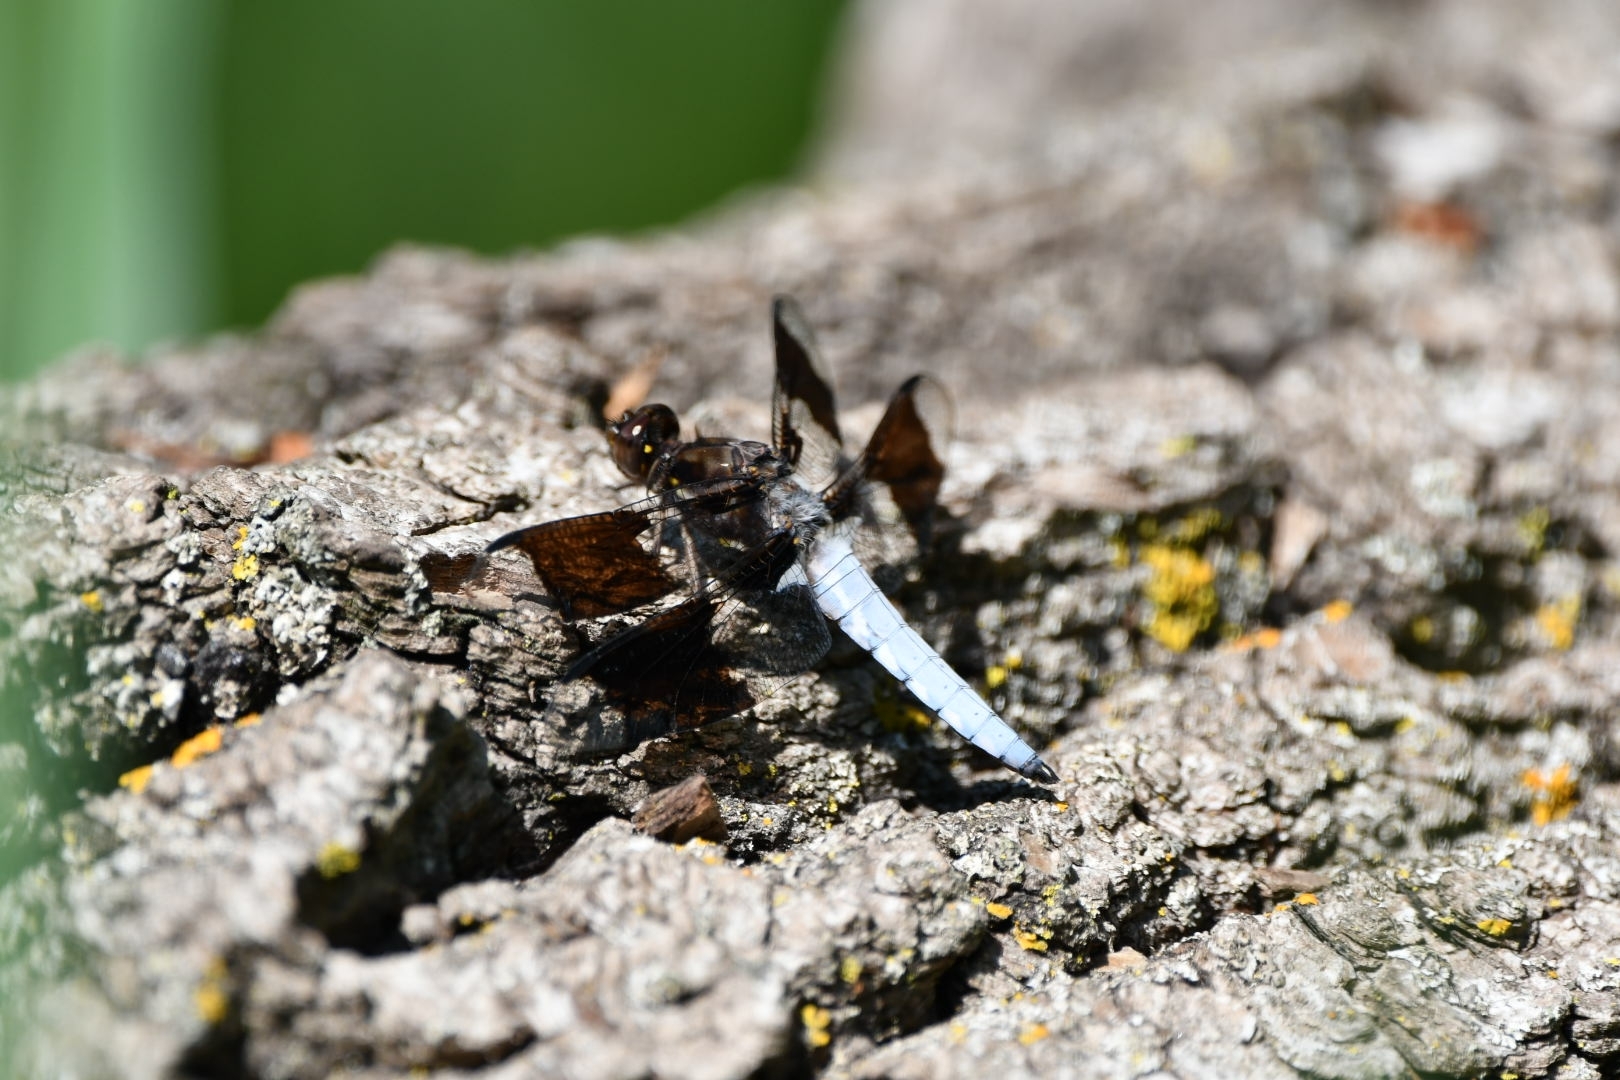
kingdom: Animalia
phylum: Arthropoda
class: Insecta
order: Odonata
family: Libellulidae
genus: Plathemis
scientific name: Plathemis lydia
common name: Common whitetail
